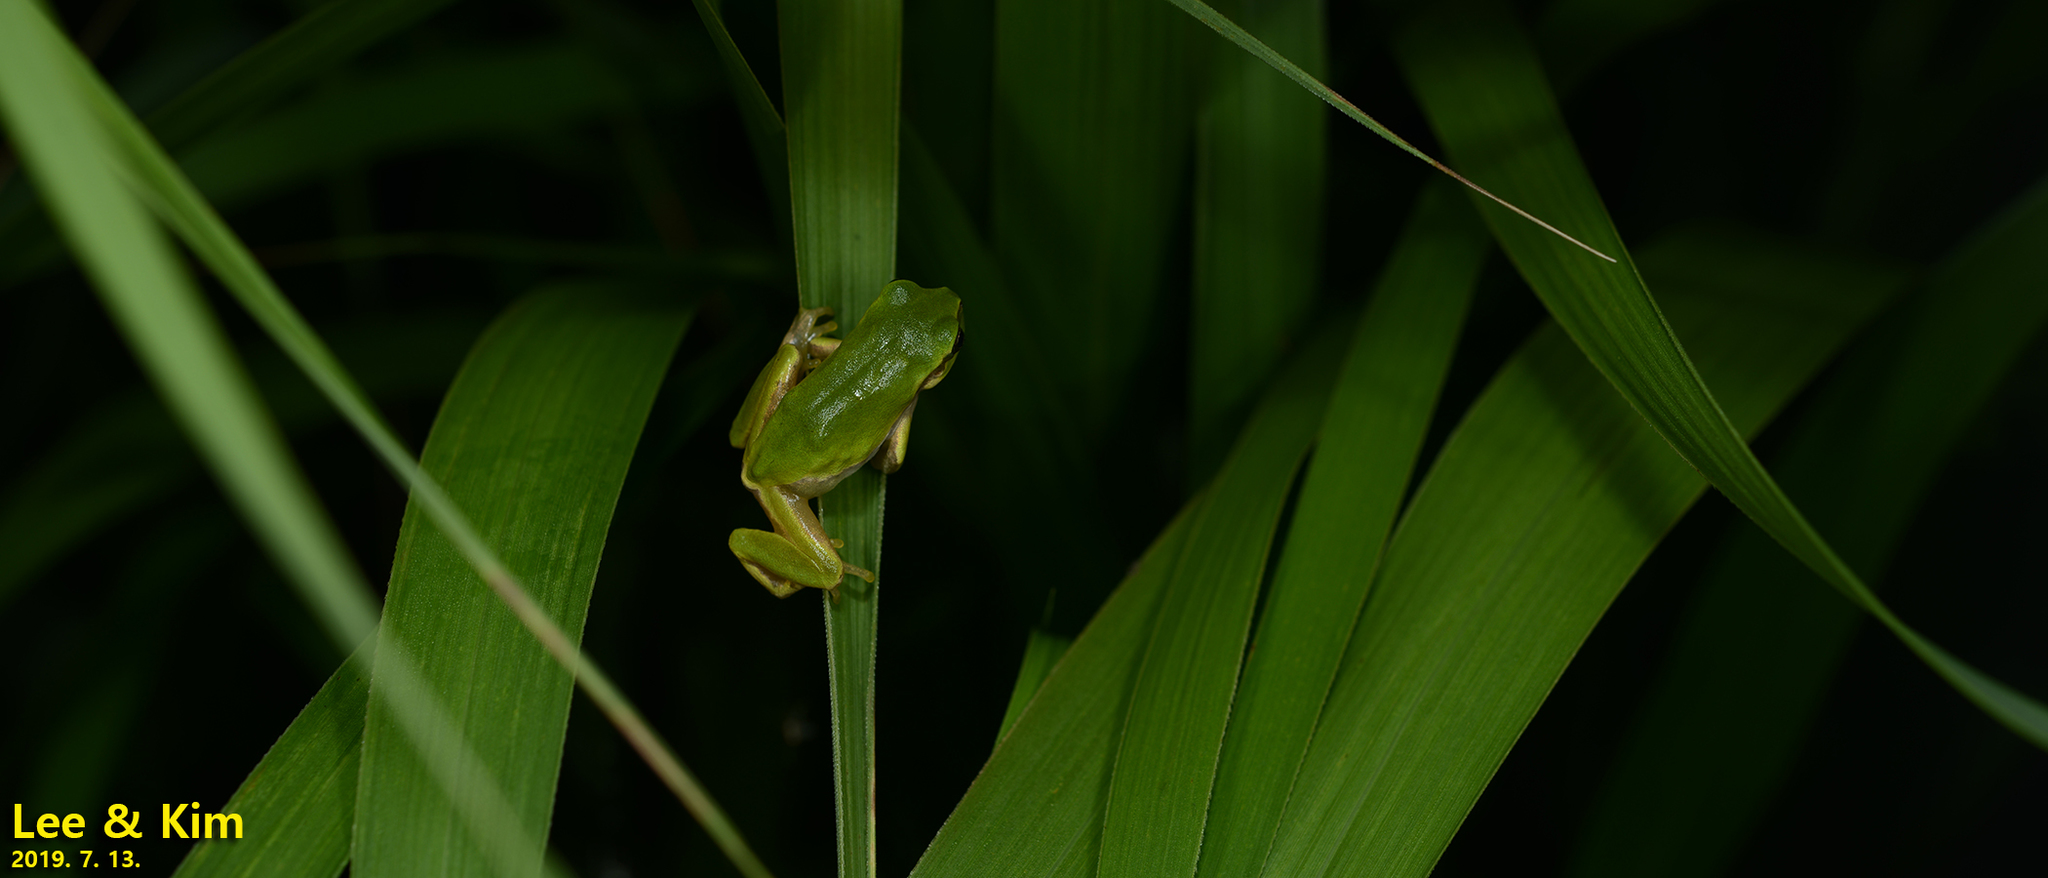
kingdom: Animalia
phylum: Chordata
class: Amphibia
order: Anura
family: Hylidae
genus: Dryophytes
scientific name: Dryophytes japonicus
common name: Japanese treefrog
